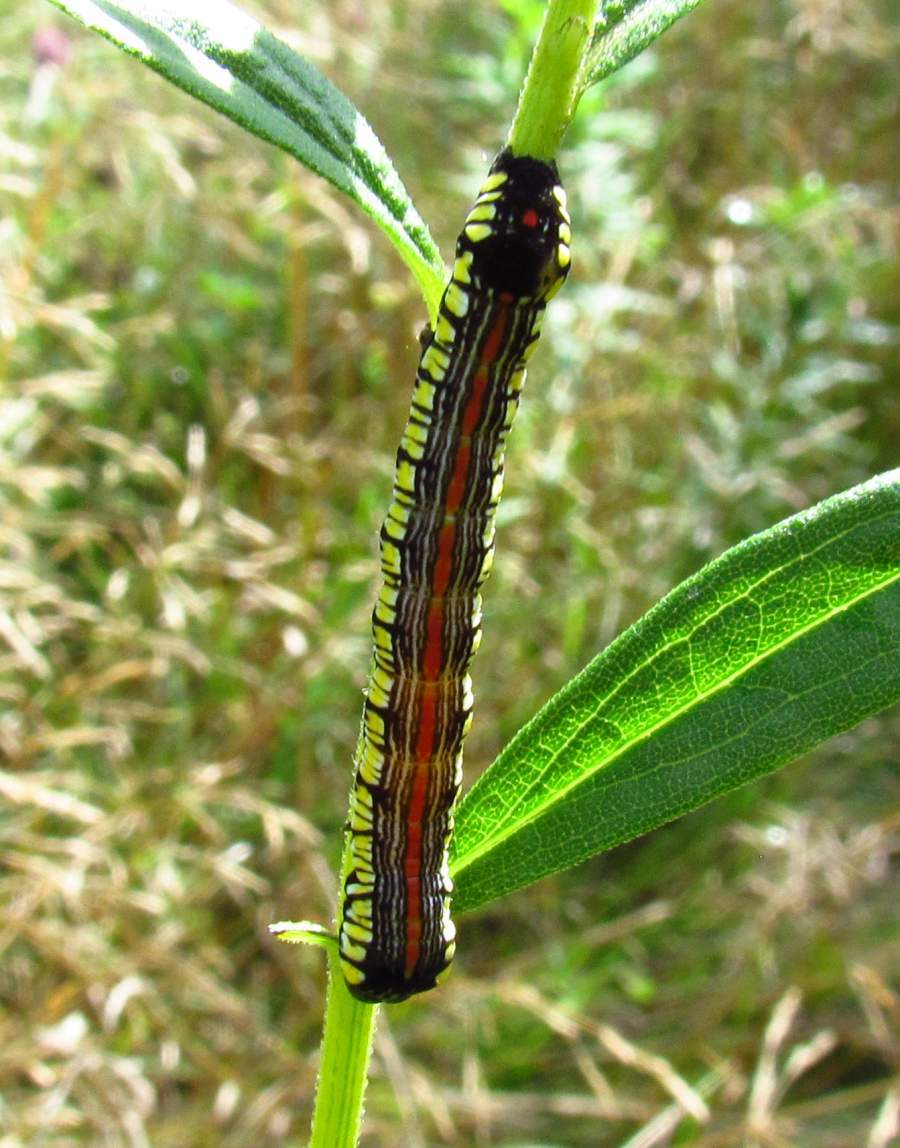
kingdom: Animalia
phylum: Arthropoda
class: Insecta
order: Lepidoptera
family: Noctuidae
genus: Cucullia
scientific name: Cucullia convexipennis
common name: Brown-hooded owlet
